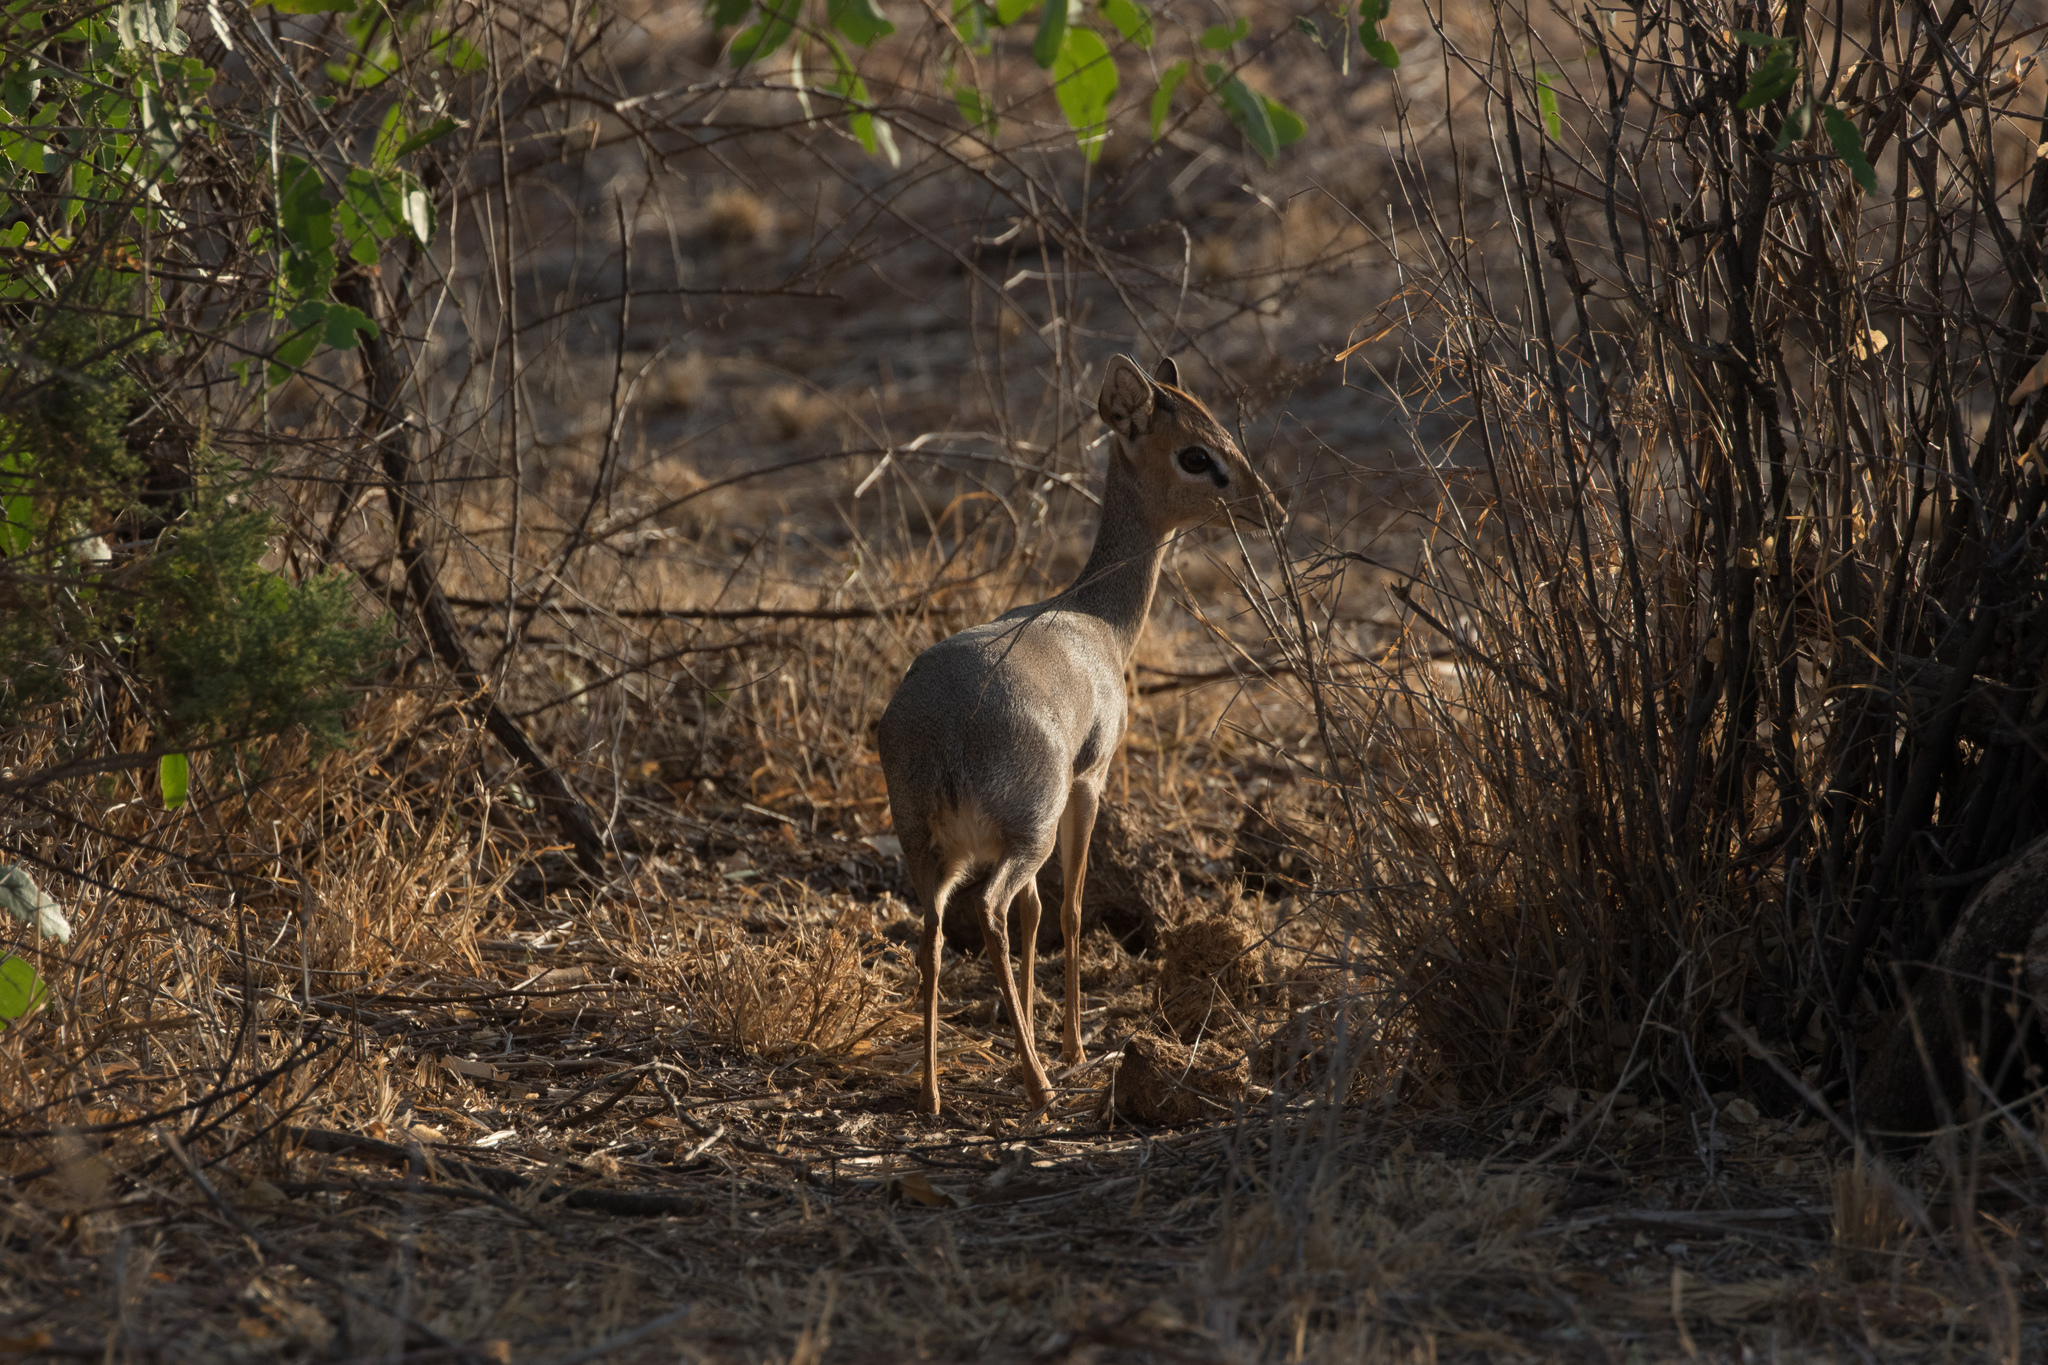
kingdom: Animalia
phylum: Chordata
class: Mammalia
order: Artiodactyla
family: Bovidae
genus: Madoqua
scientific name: Madoqua kirkii
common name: Kirk's dik-dik
